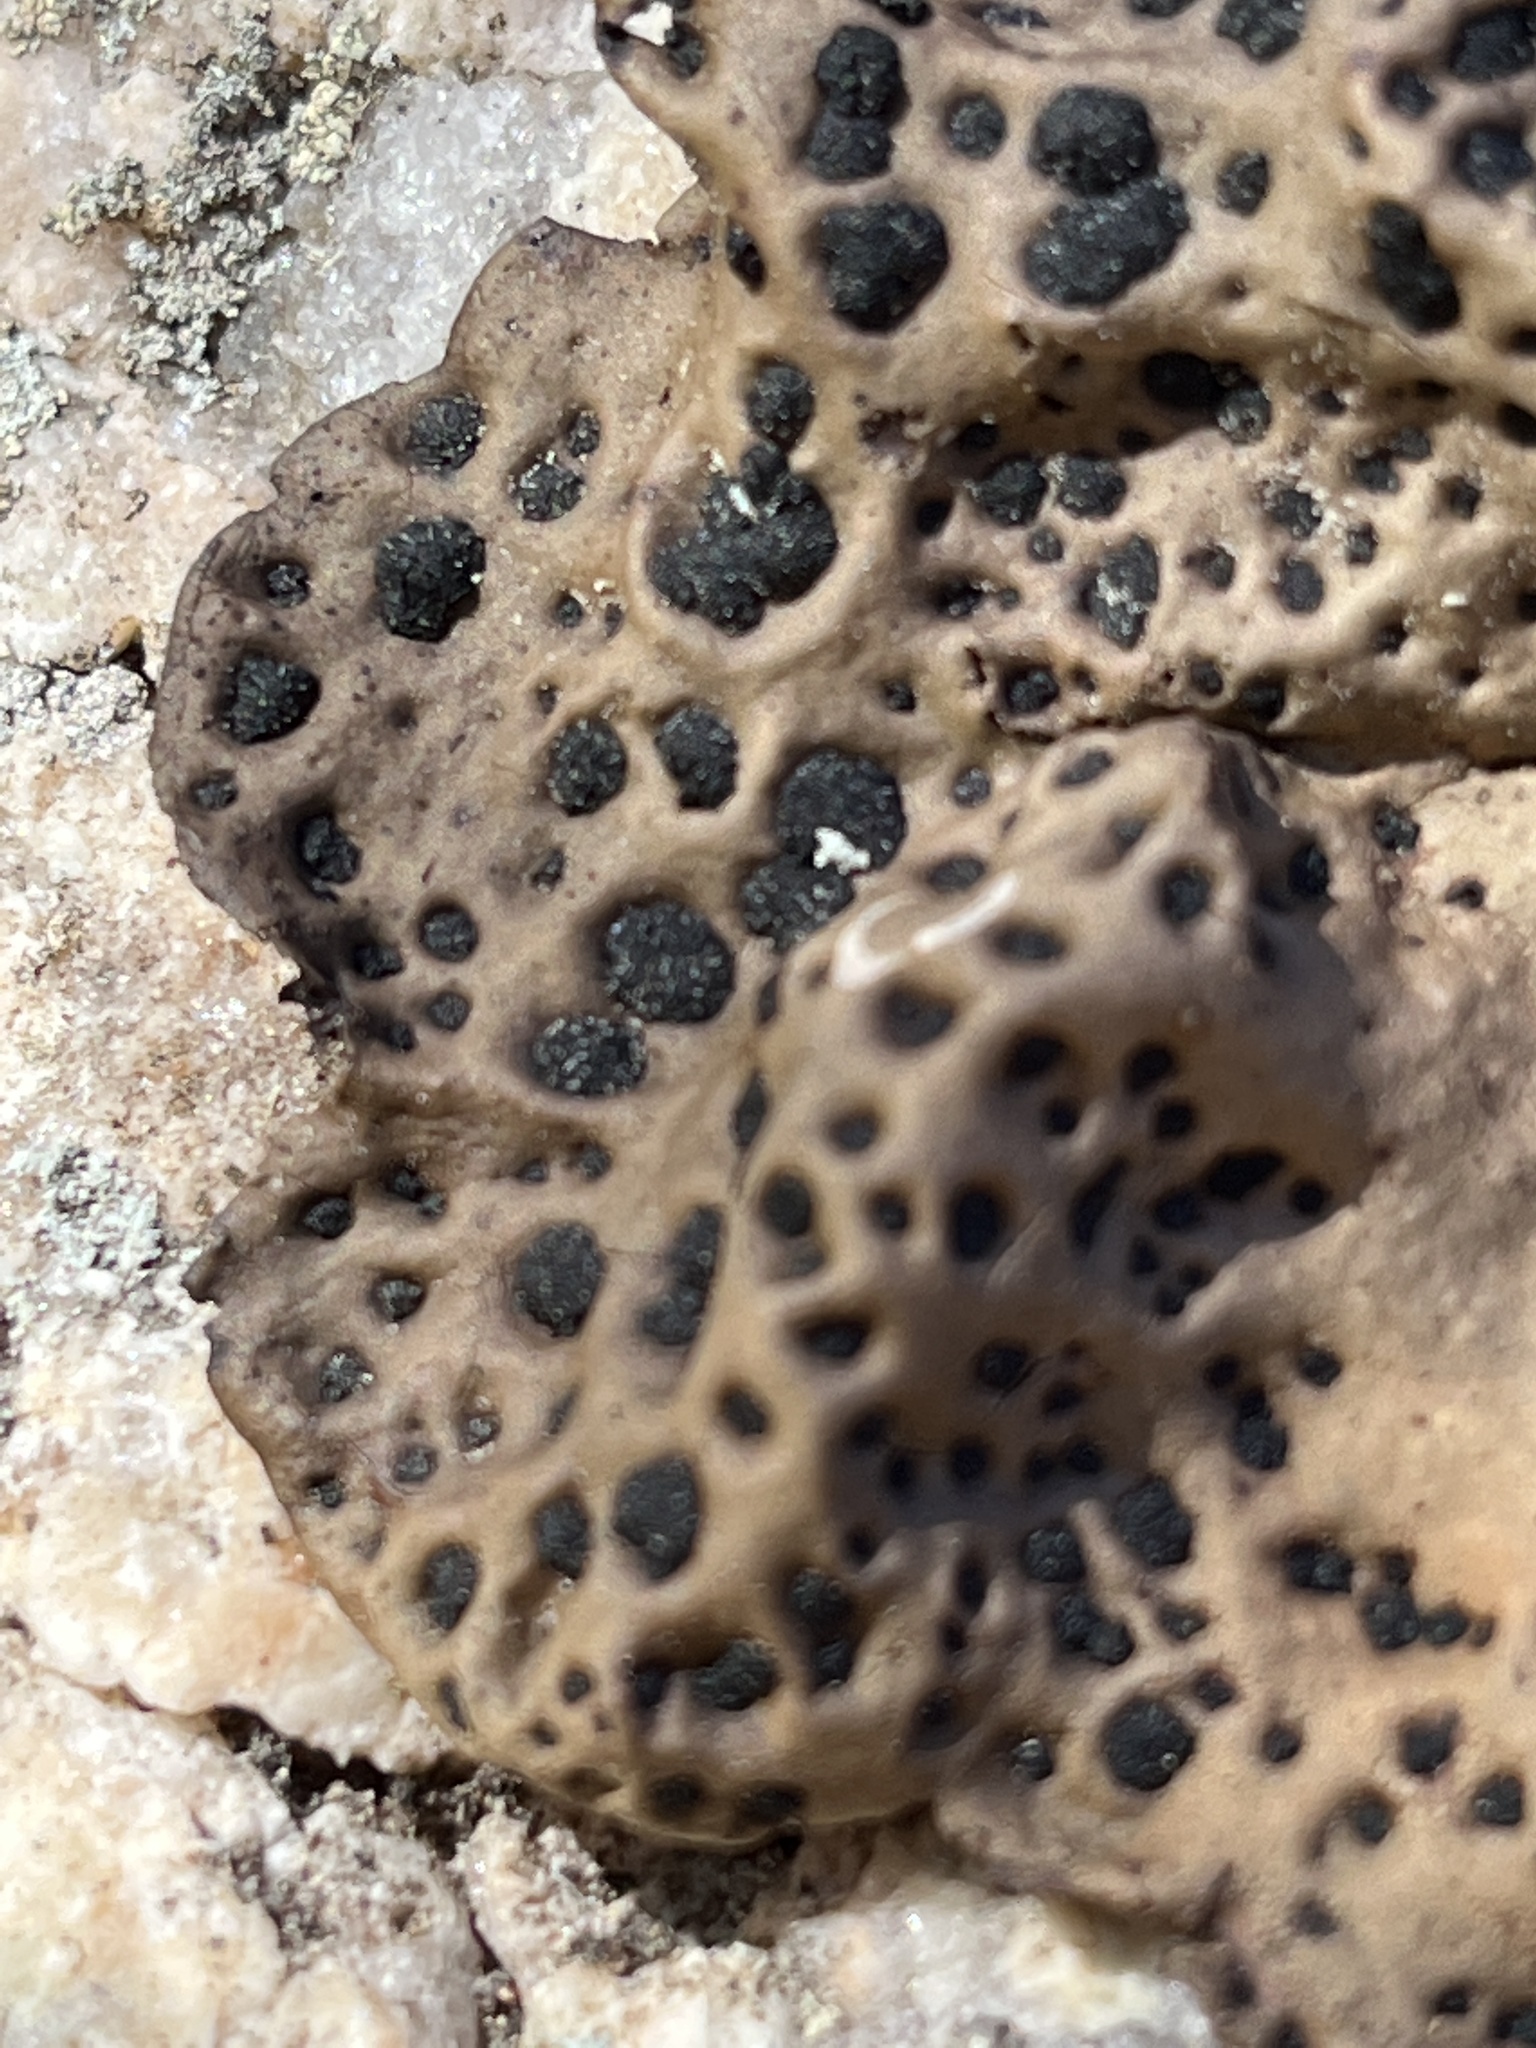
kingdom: Fungi
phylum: Ascomycota
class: Lecanoromycetes
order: Umbilicariales
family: Umbilicariaceae
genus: Umbilicaria
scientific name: Umbilicaria muhlenbergii
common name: Lesser rocktripe
